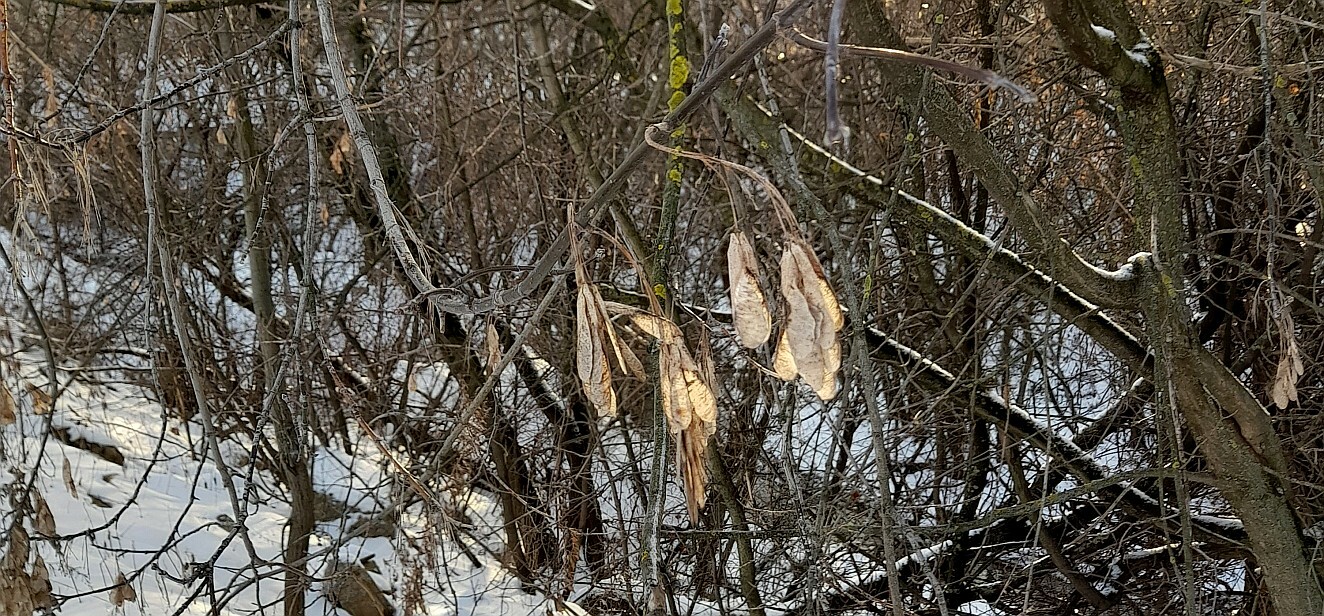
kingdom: Plantae
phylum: Tracheophyta
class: Magnoliopsida
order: Sapindales
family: Sapindaceae
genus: Acer
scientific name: Acer negundo
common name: Ashleaf maple
